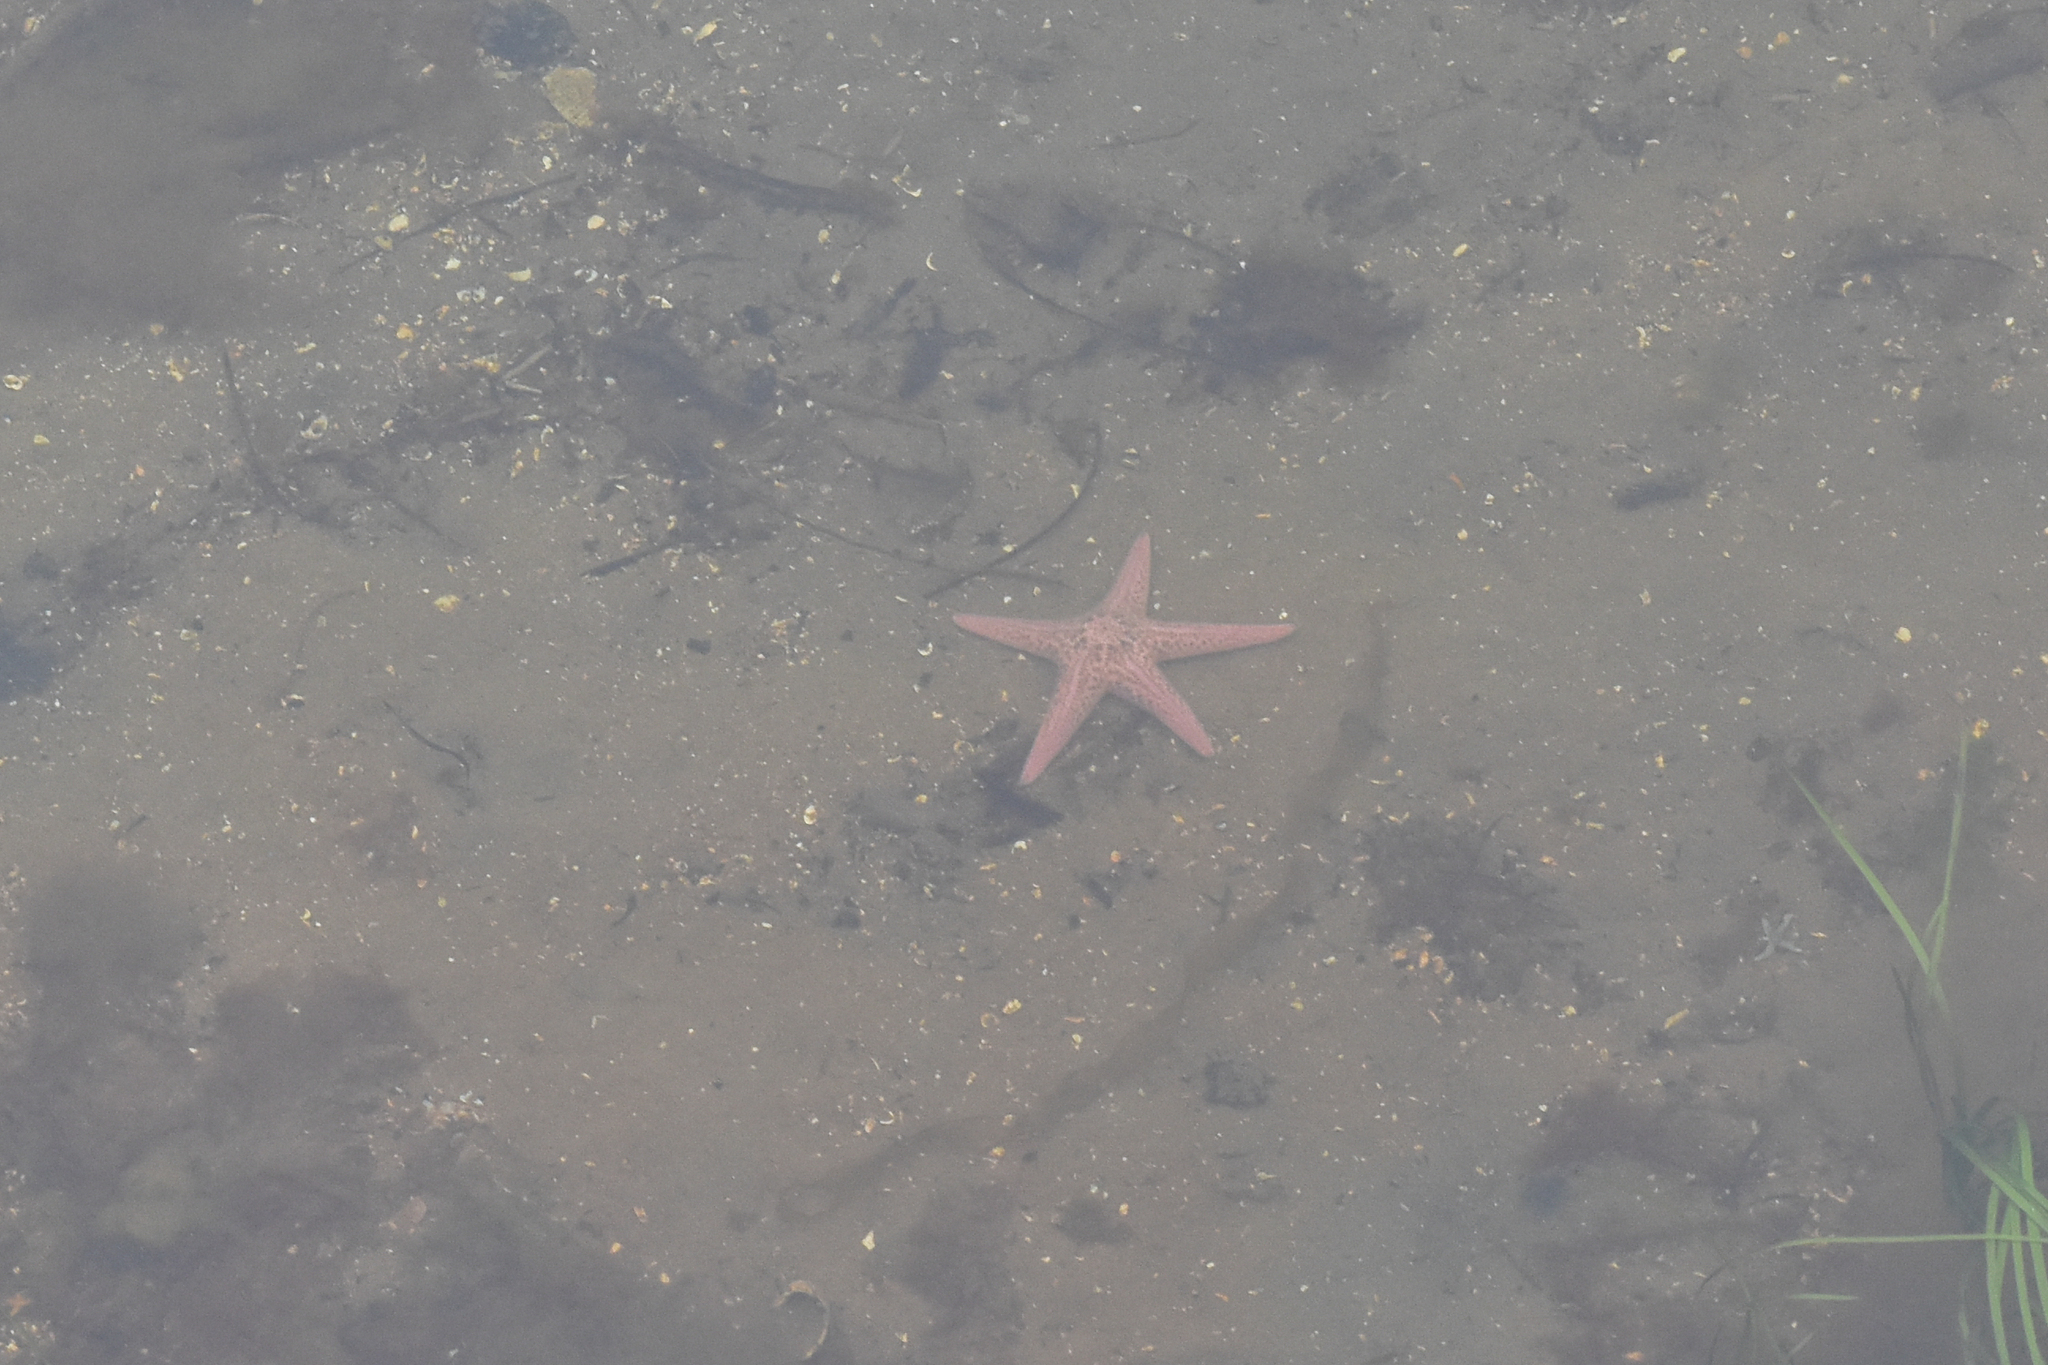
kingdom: Animalia
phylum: Echinodermata
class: Asteroidea
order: Forcipulatida
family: Asteriidae
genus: Pisaster
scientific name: Pisaster brevispinus
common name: Pink stars
